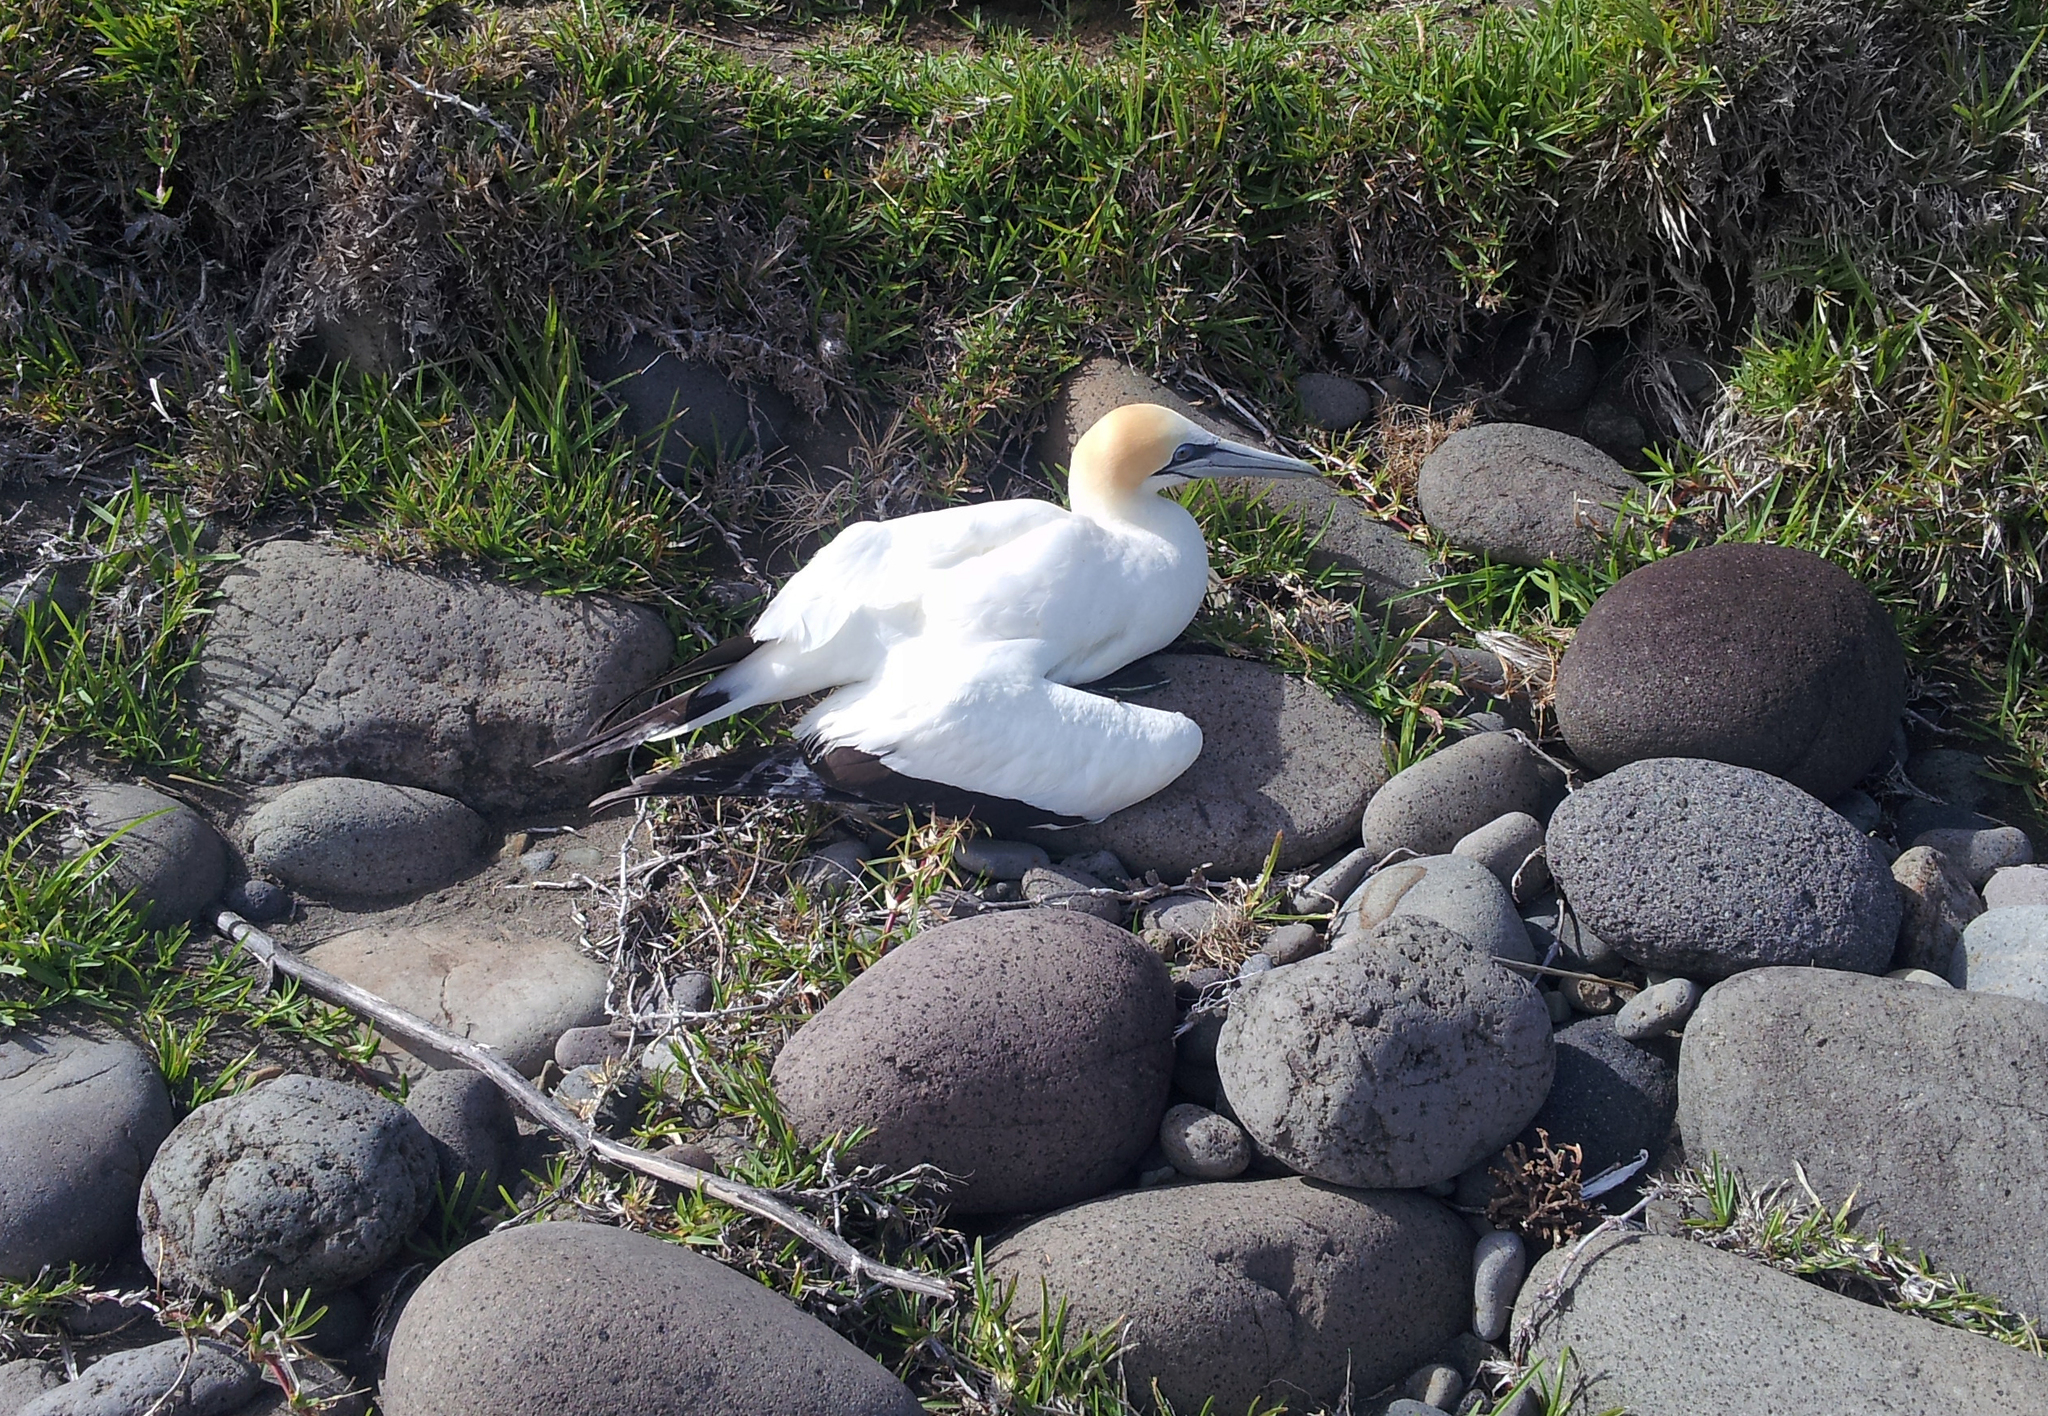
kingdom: Animalia
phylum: Chordata
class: Aves
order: Suliformes
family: Sulidae
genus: Morus
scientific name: Morus serrator
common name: Australasian gannet
